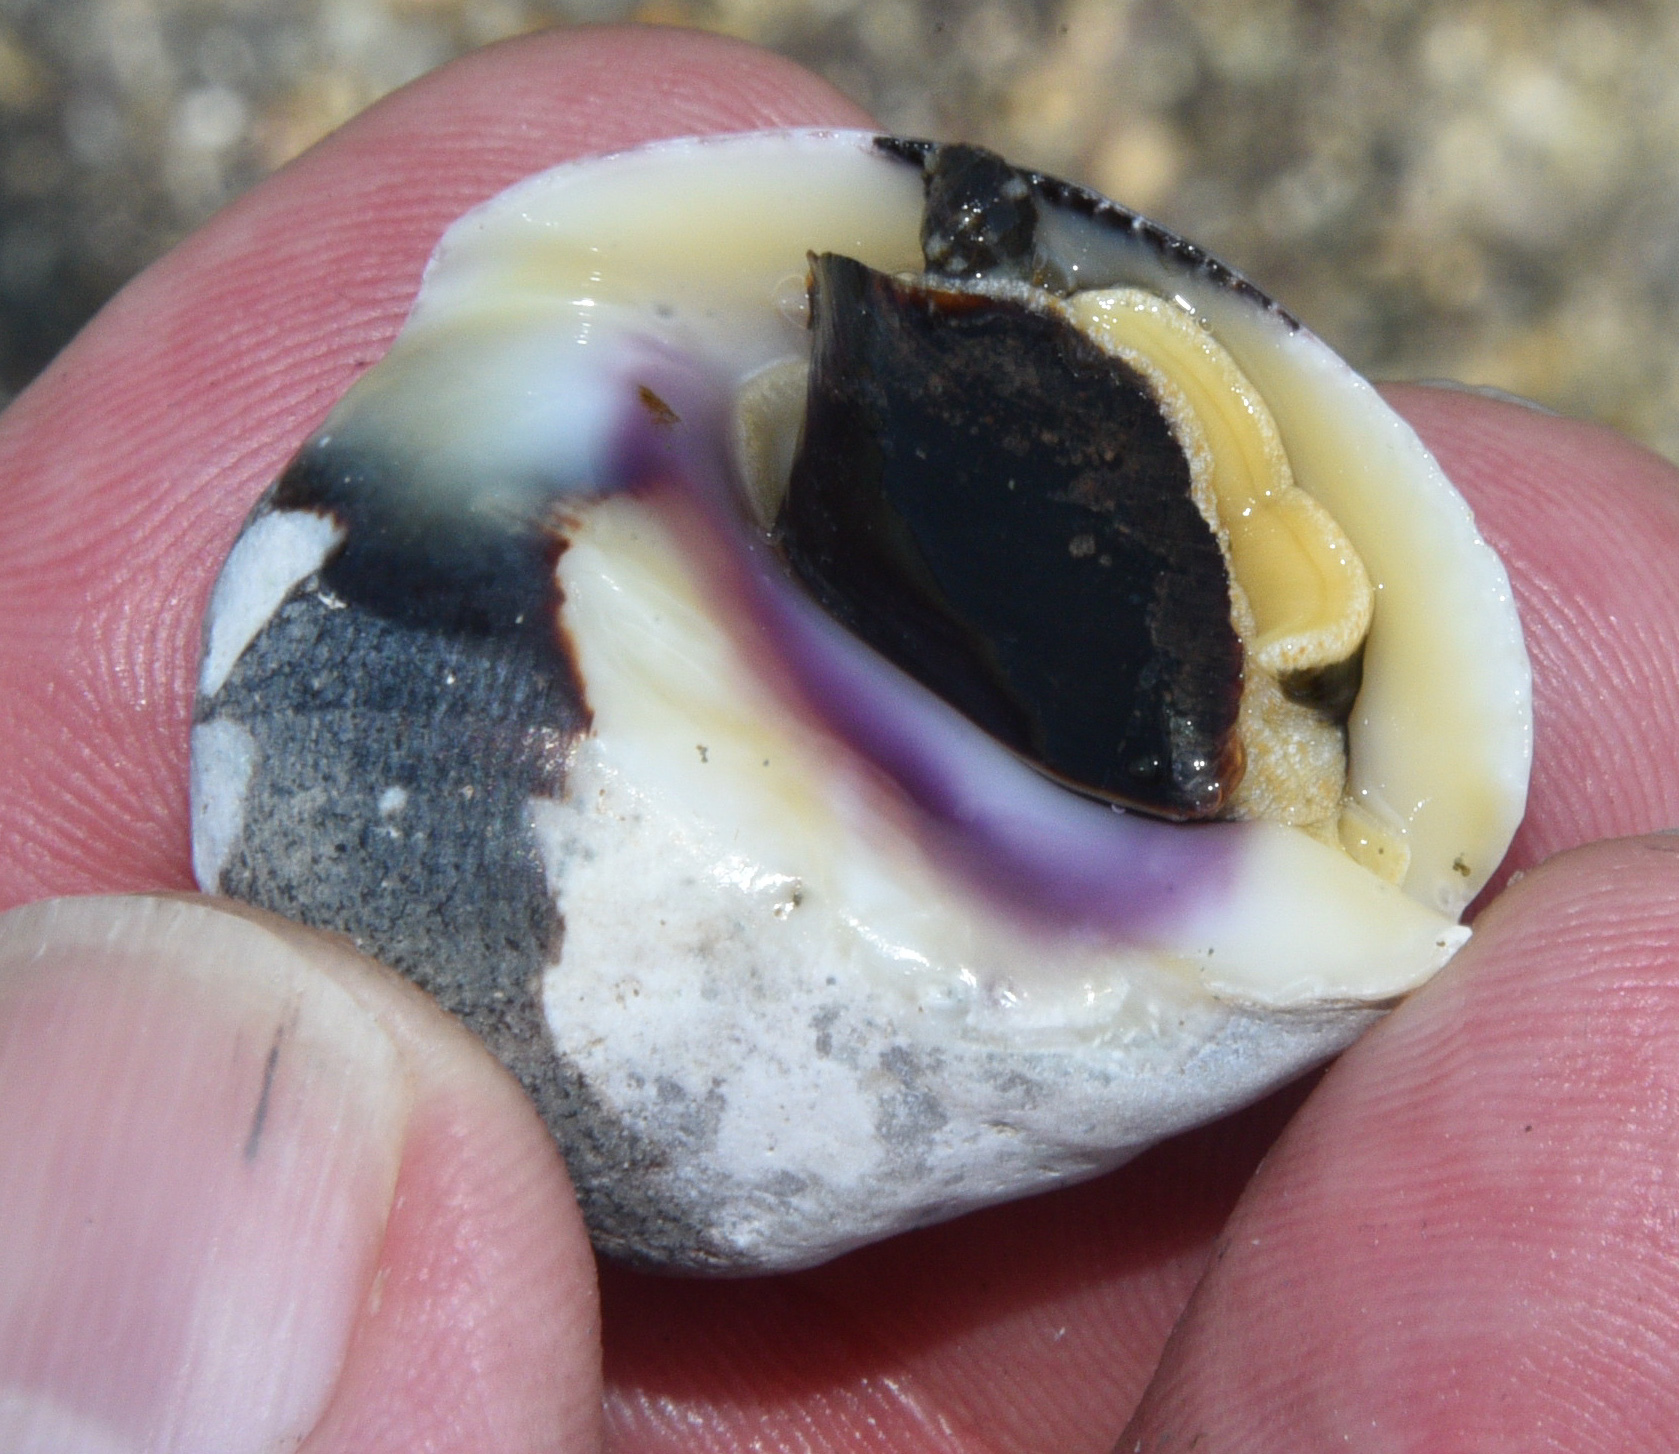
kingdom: Animalia
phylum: Mollusca
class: Gastropoda
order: Neogastropoda
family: Muricidae
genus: Vasula
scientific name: Vasula melones
